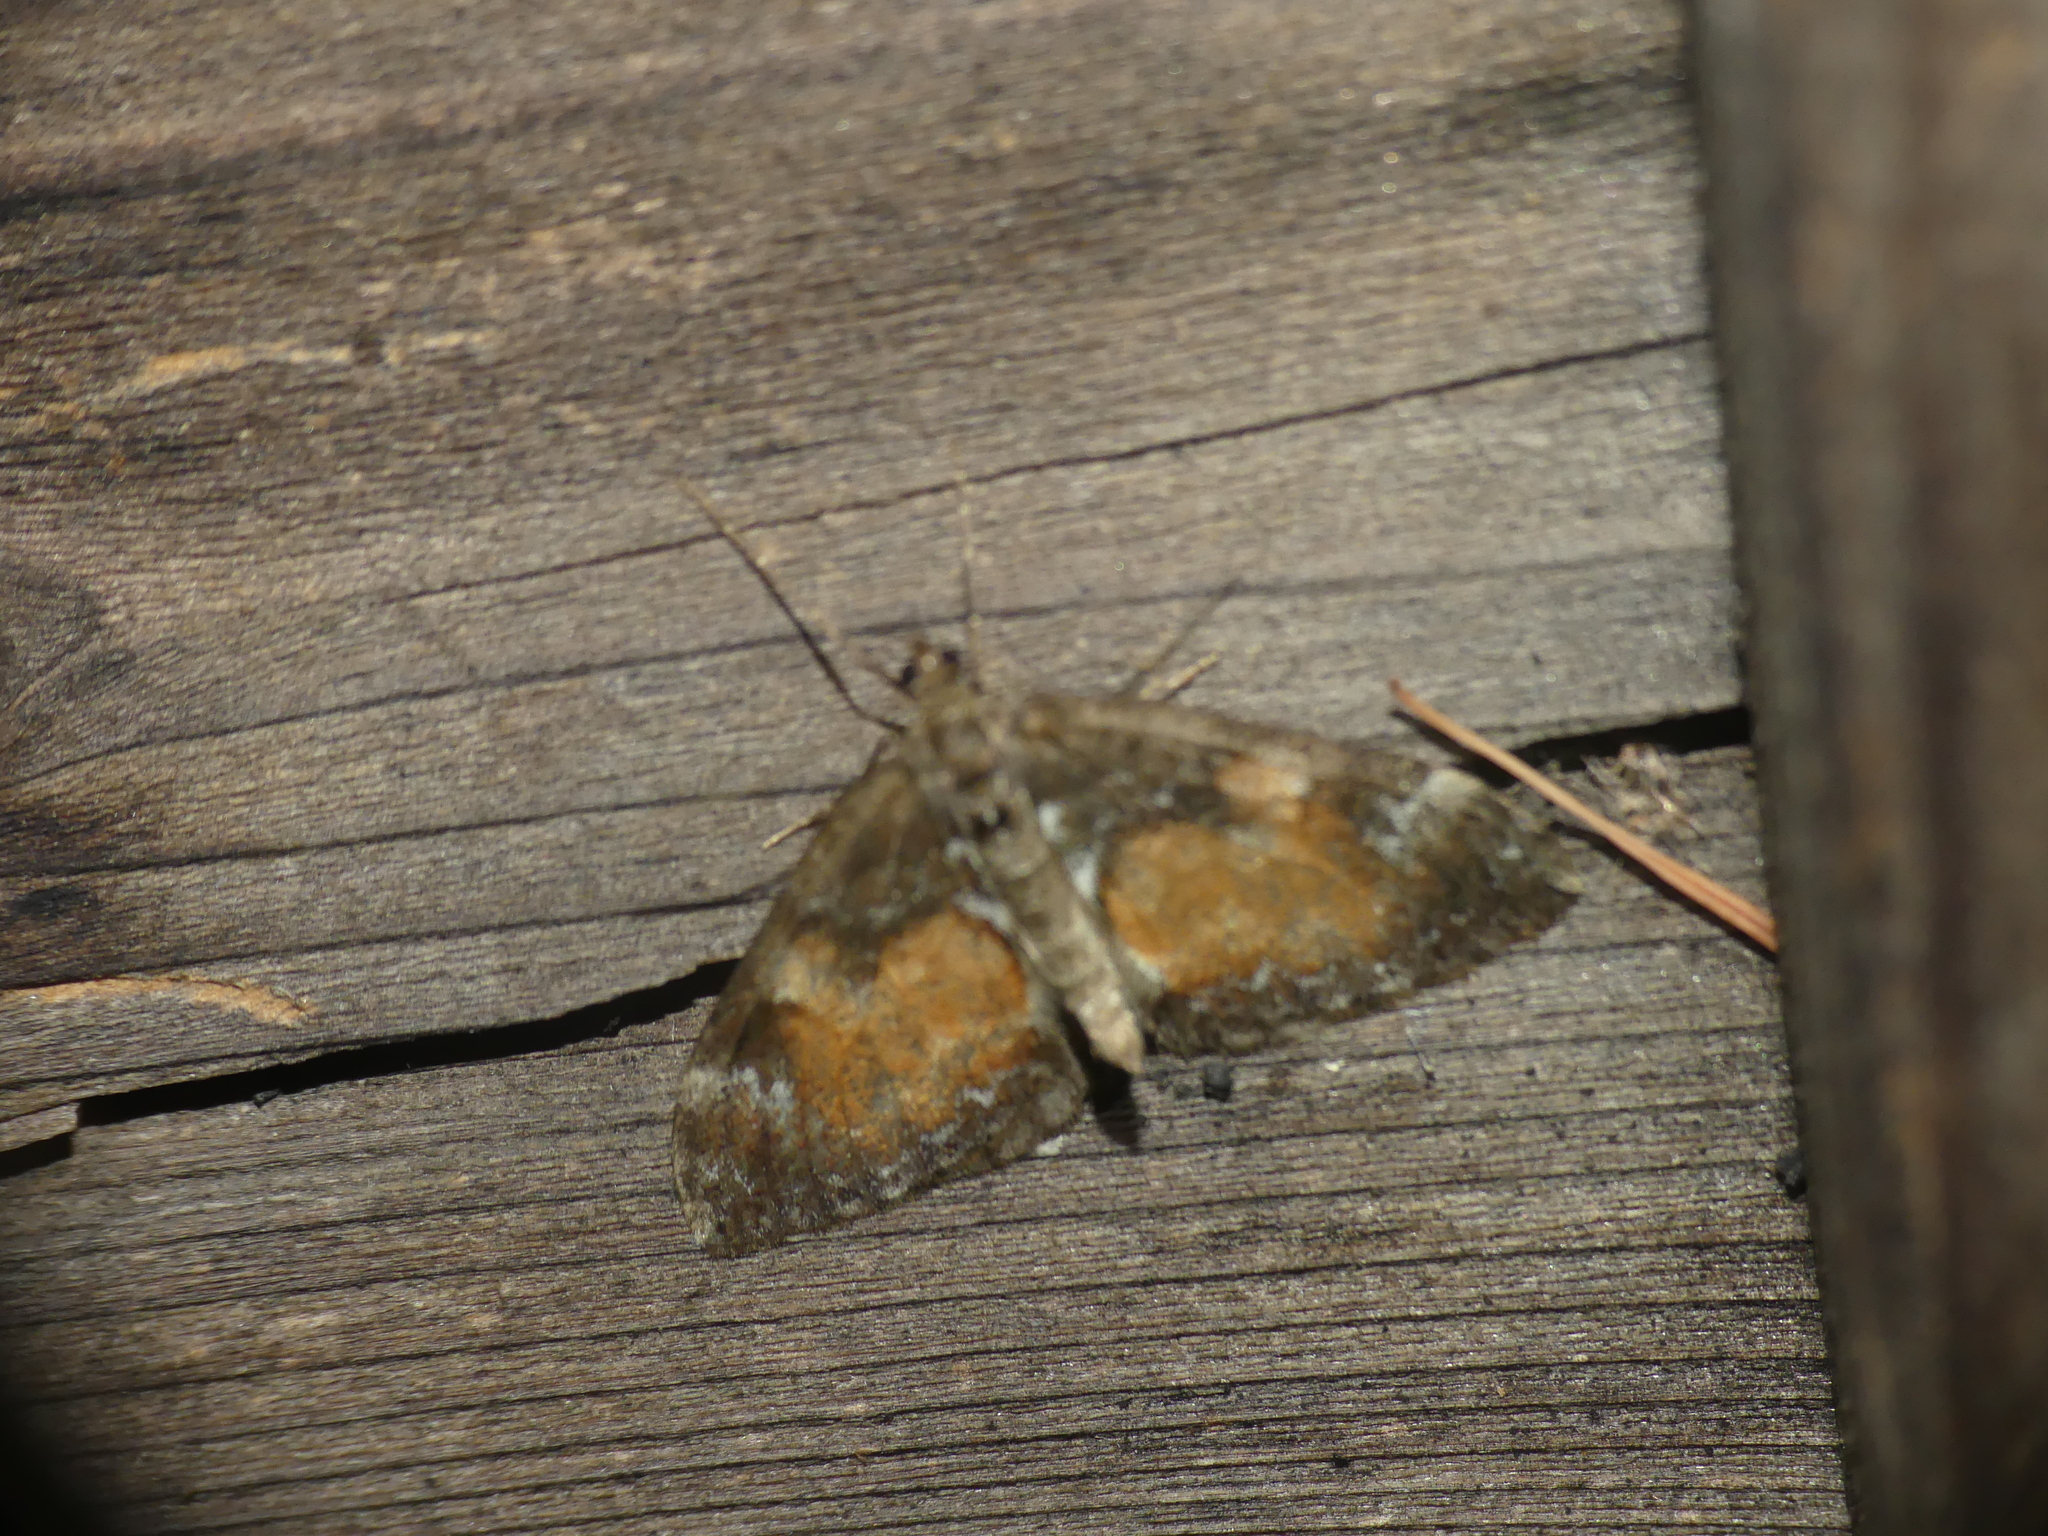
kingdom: Animalia
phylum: Arthropoda
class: Insecta
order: Lepidoptera
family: Geometridae
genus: Dysstroma
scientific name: Dysstroma truncata
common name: Common marbled carpet
